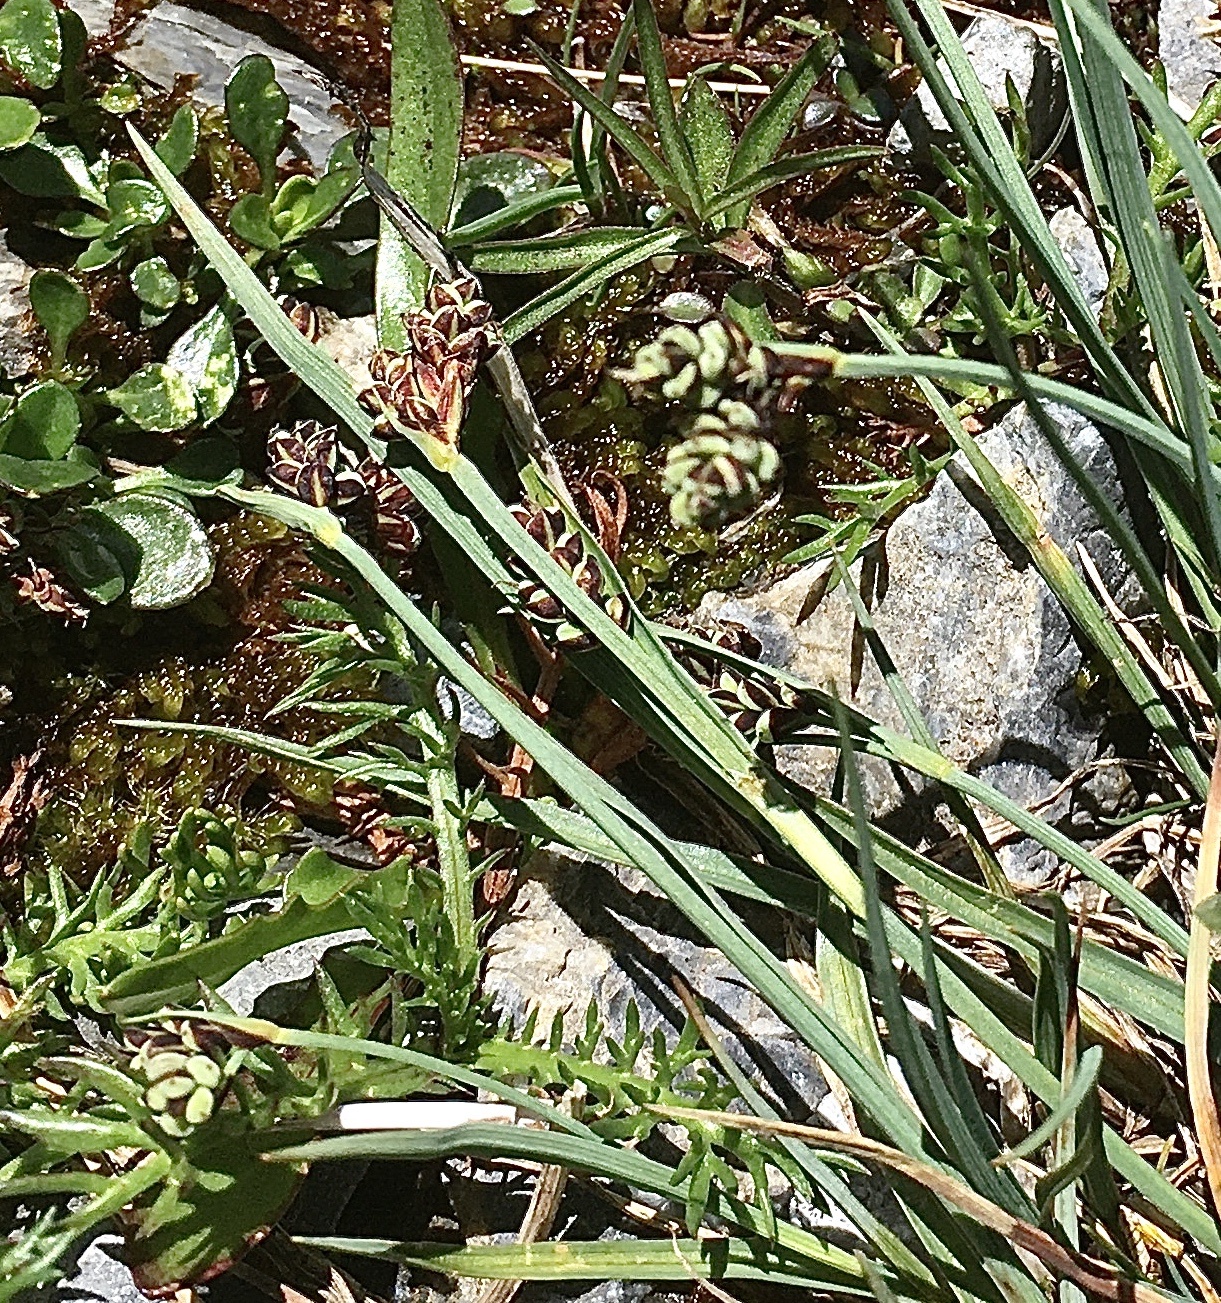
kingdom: Plantae
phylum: Tracheophyta
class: Liliopsida
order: Poales
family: Cyperaceae
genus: Carex
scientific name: Carex bicolor
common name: Bicoloured sedge
